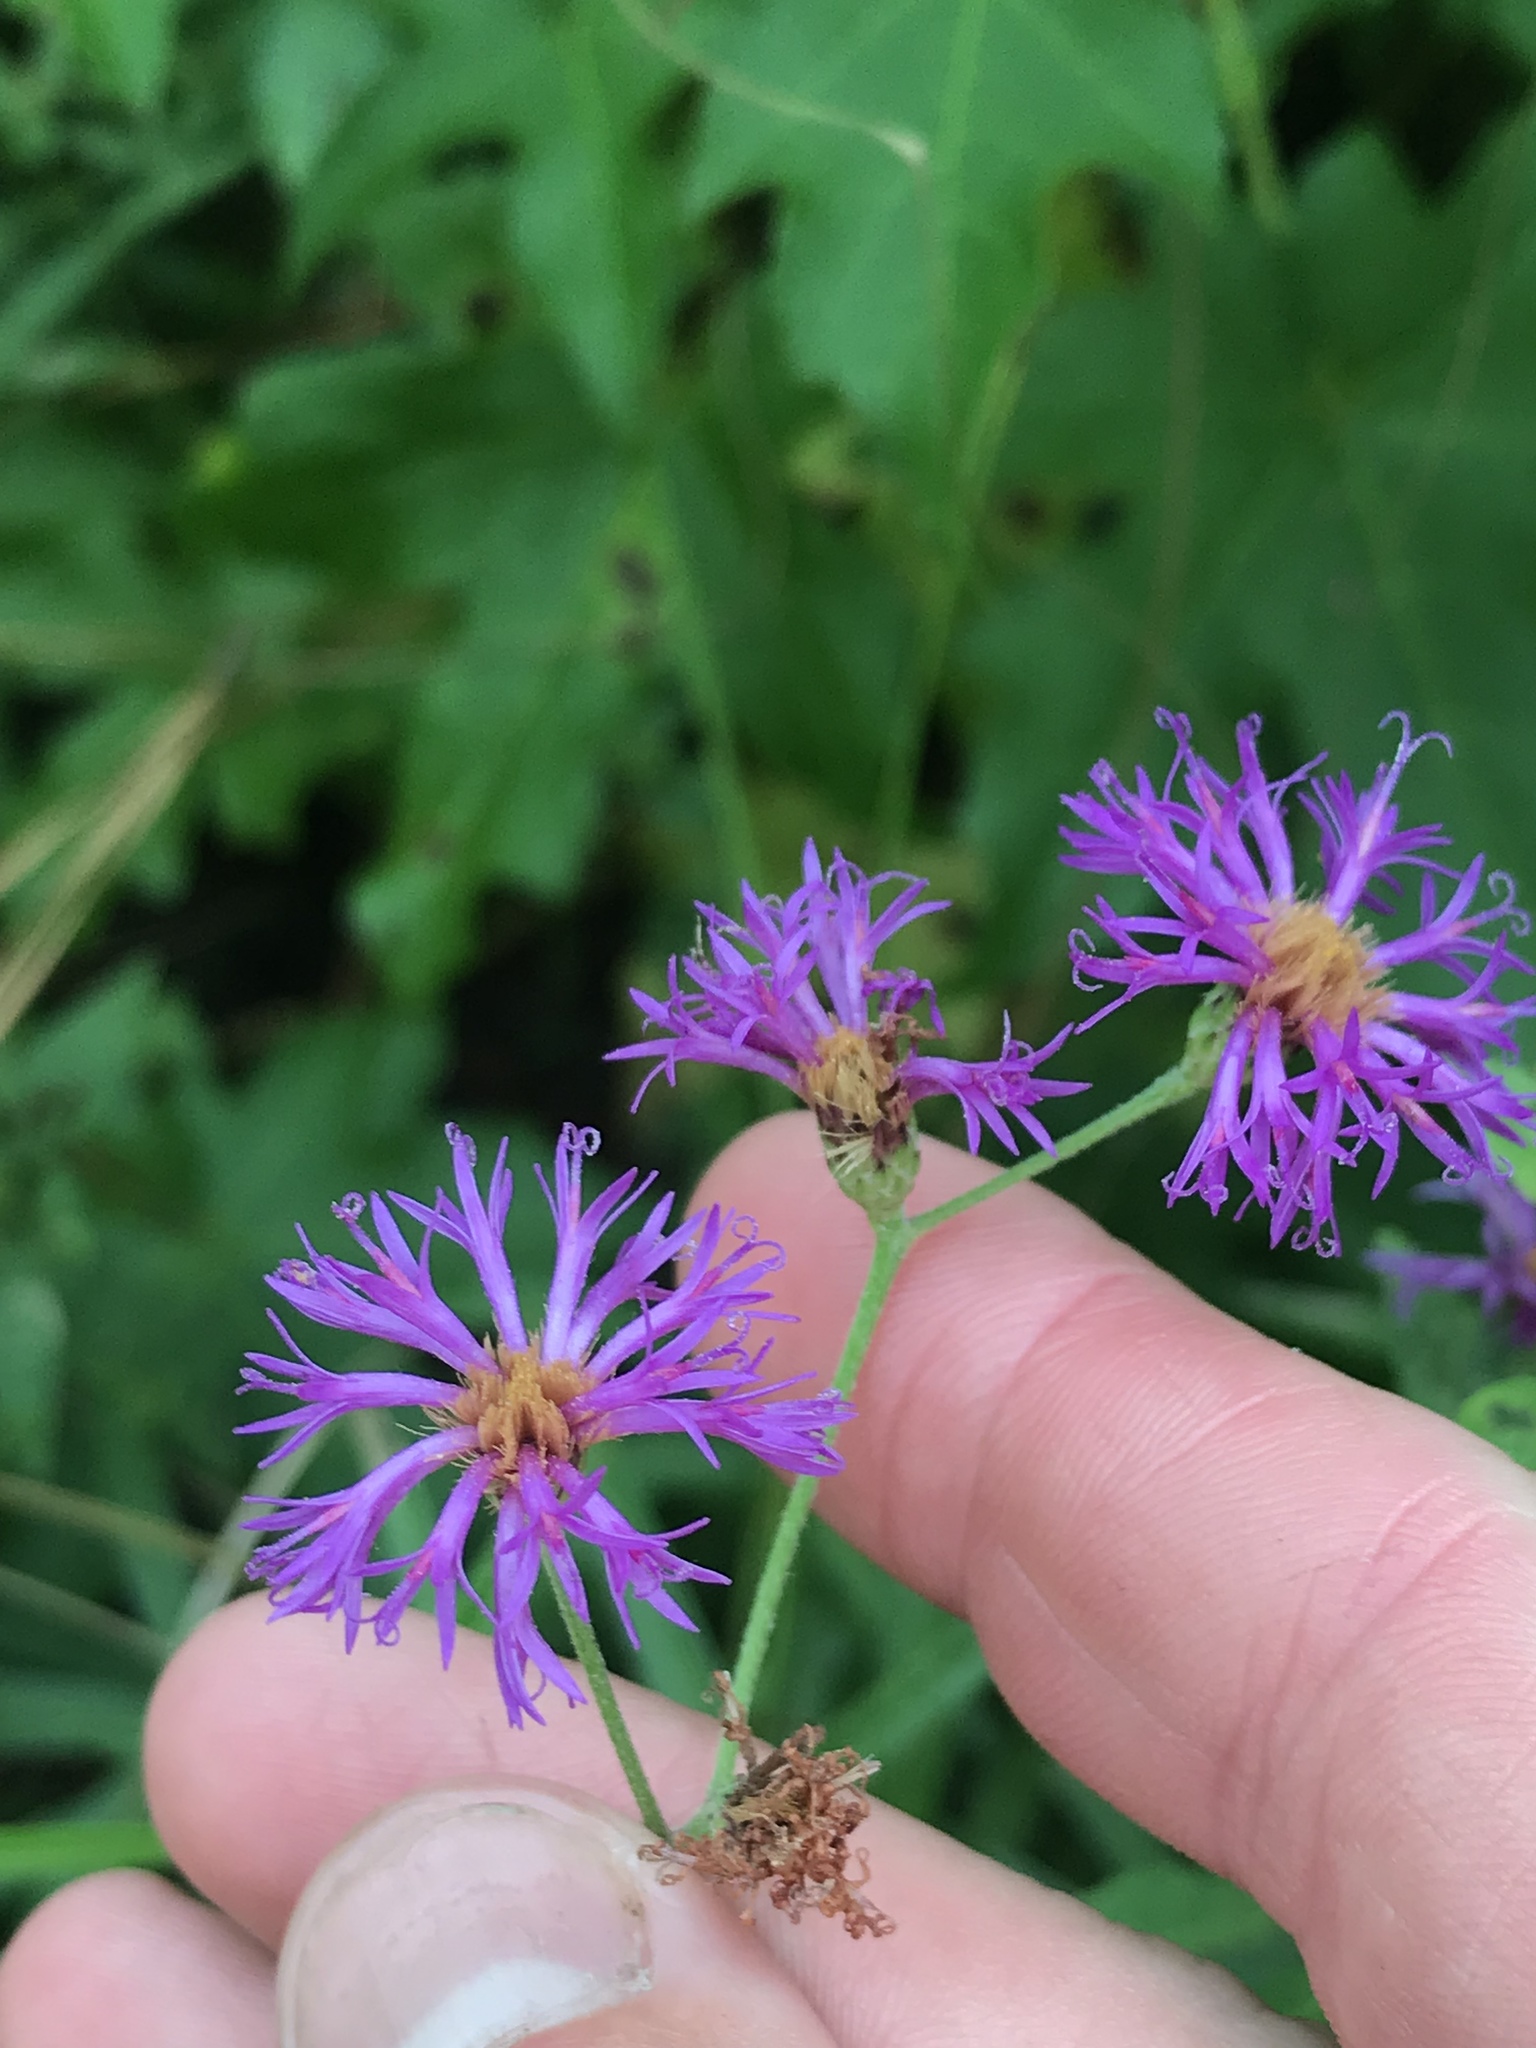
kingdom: Plantae
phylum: Tracheophyta
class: Magnoliopsida
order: Asterales
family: Asteraceae
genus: Vernonia
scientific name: Vernonia texana
